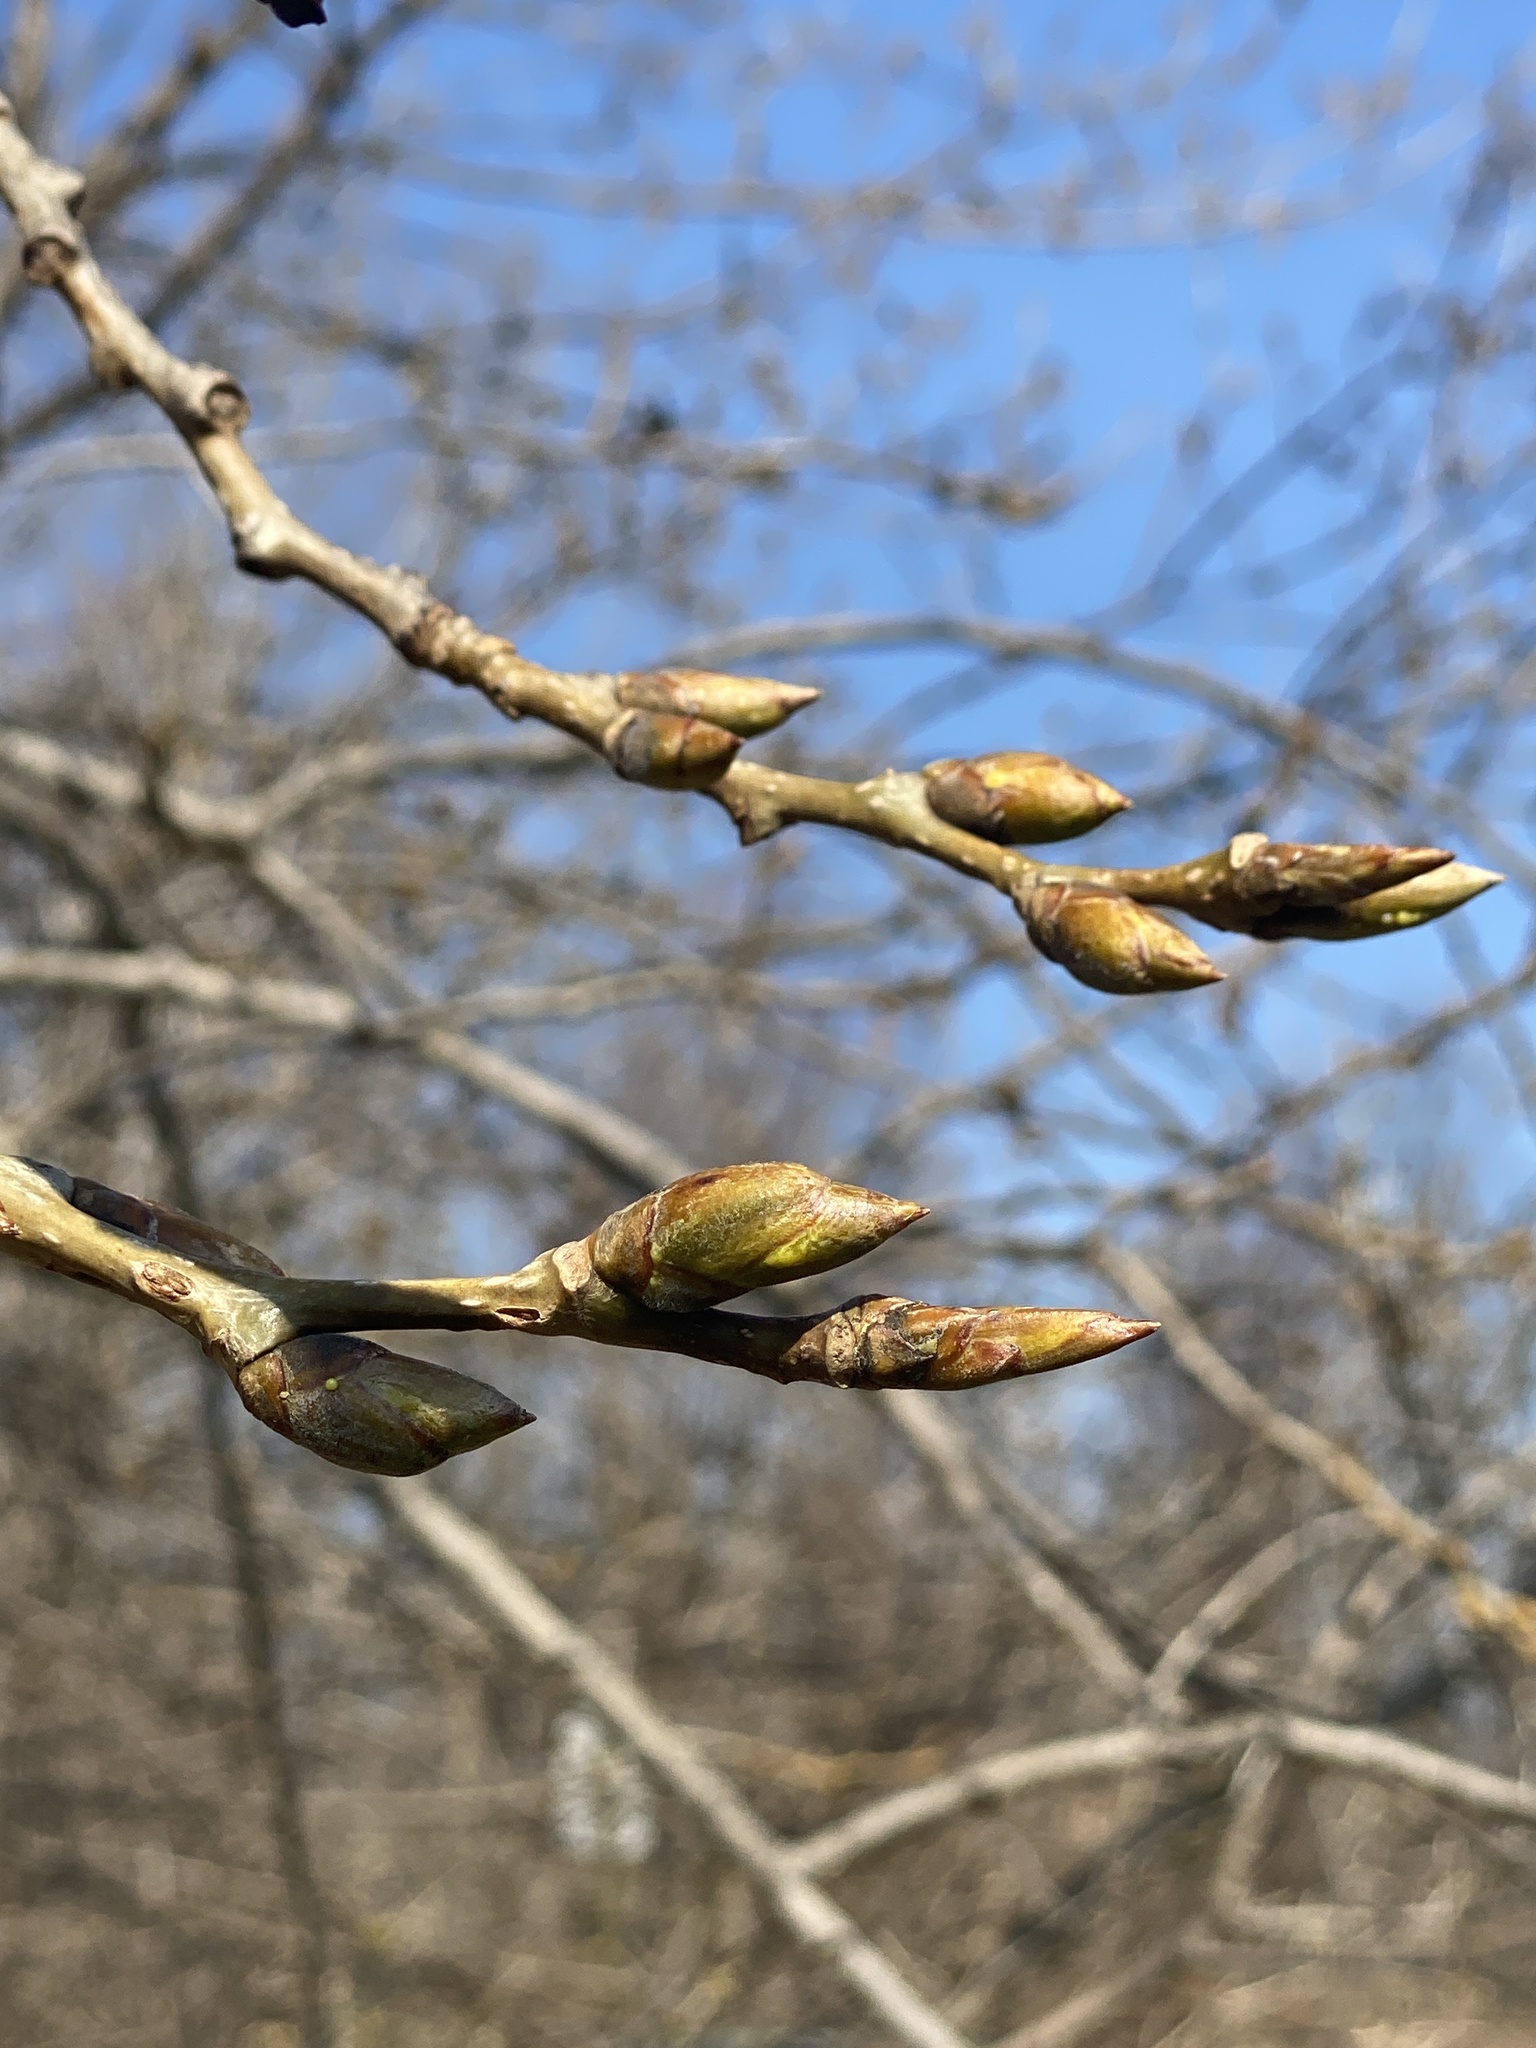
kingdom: Plantae
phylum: Tracheophyta
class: Magnoliopsida
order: Malpighiales
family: Salicaceae
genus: Populus
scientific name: Populus deltoides
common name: Eastern cottonwood
